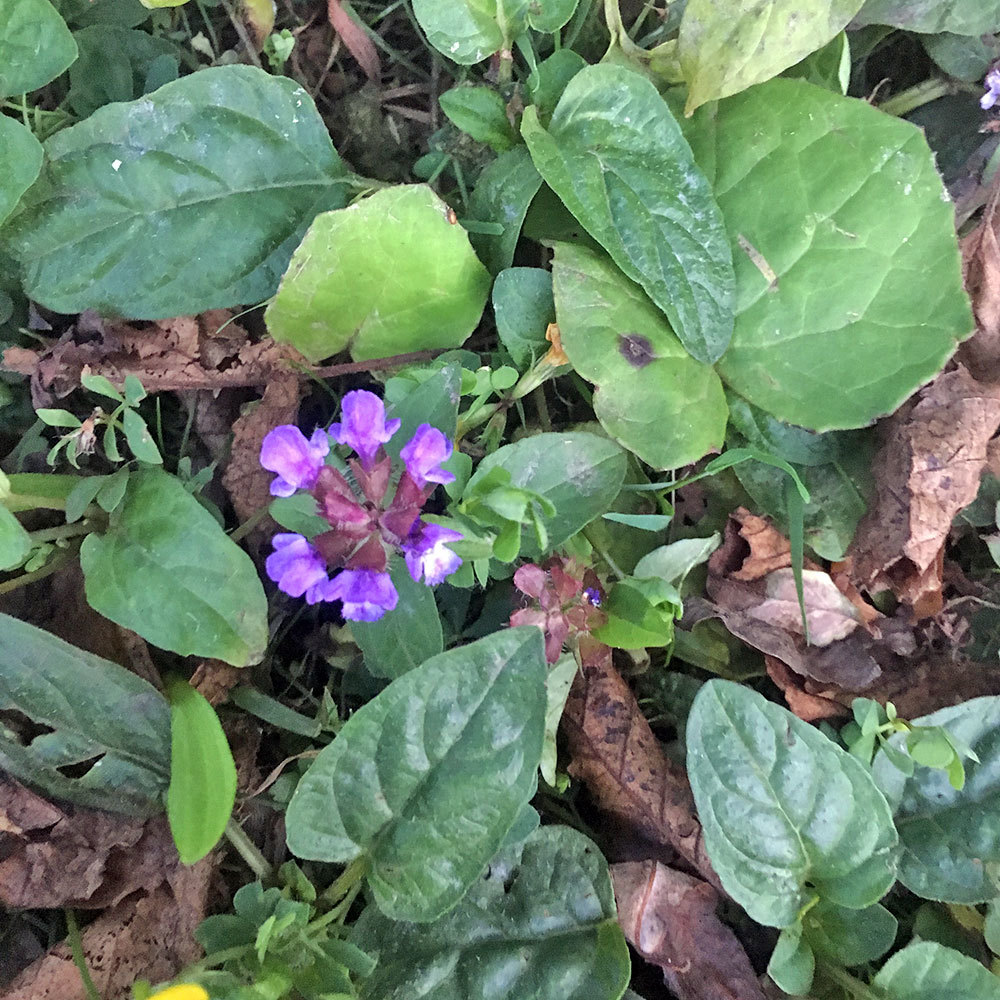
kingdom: Plantae
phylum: Tracheophyta
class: Magnoliopsida
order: Lamiales
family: Lamiaceae
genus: Prunella
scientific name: Prunella vulgaris
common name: Heal-all
